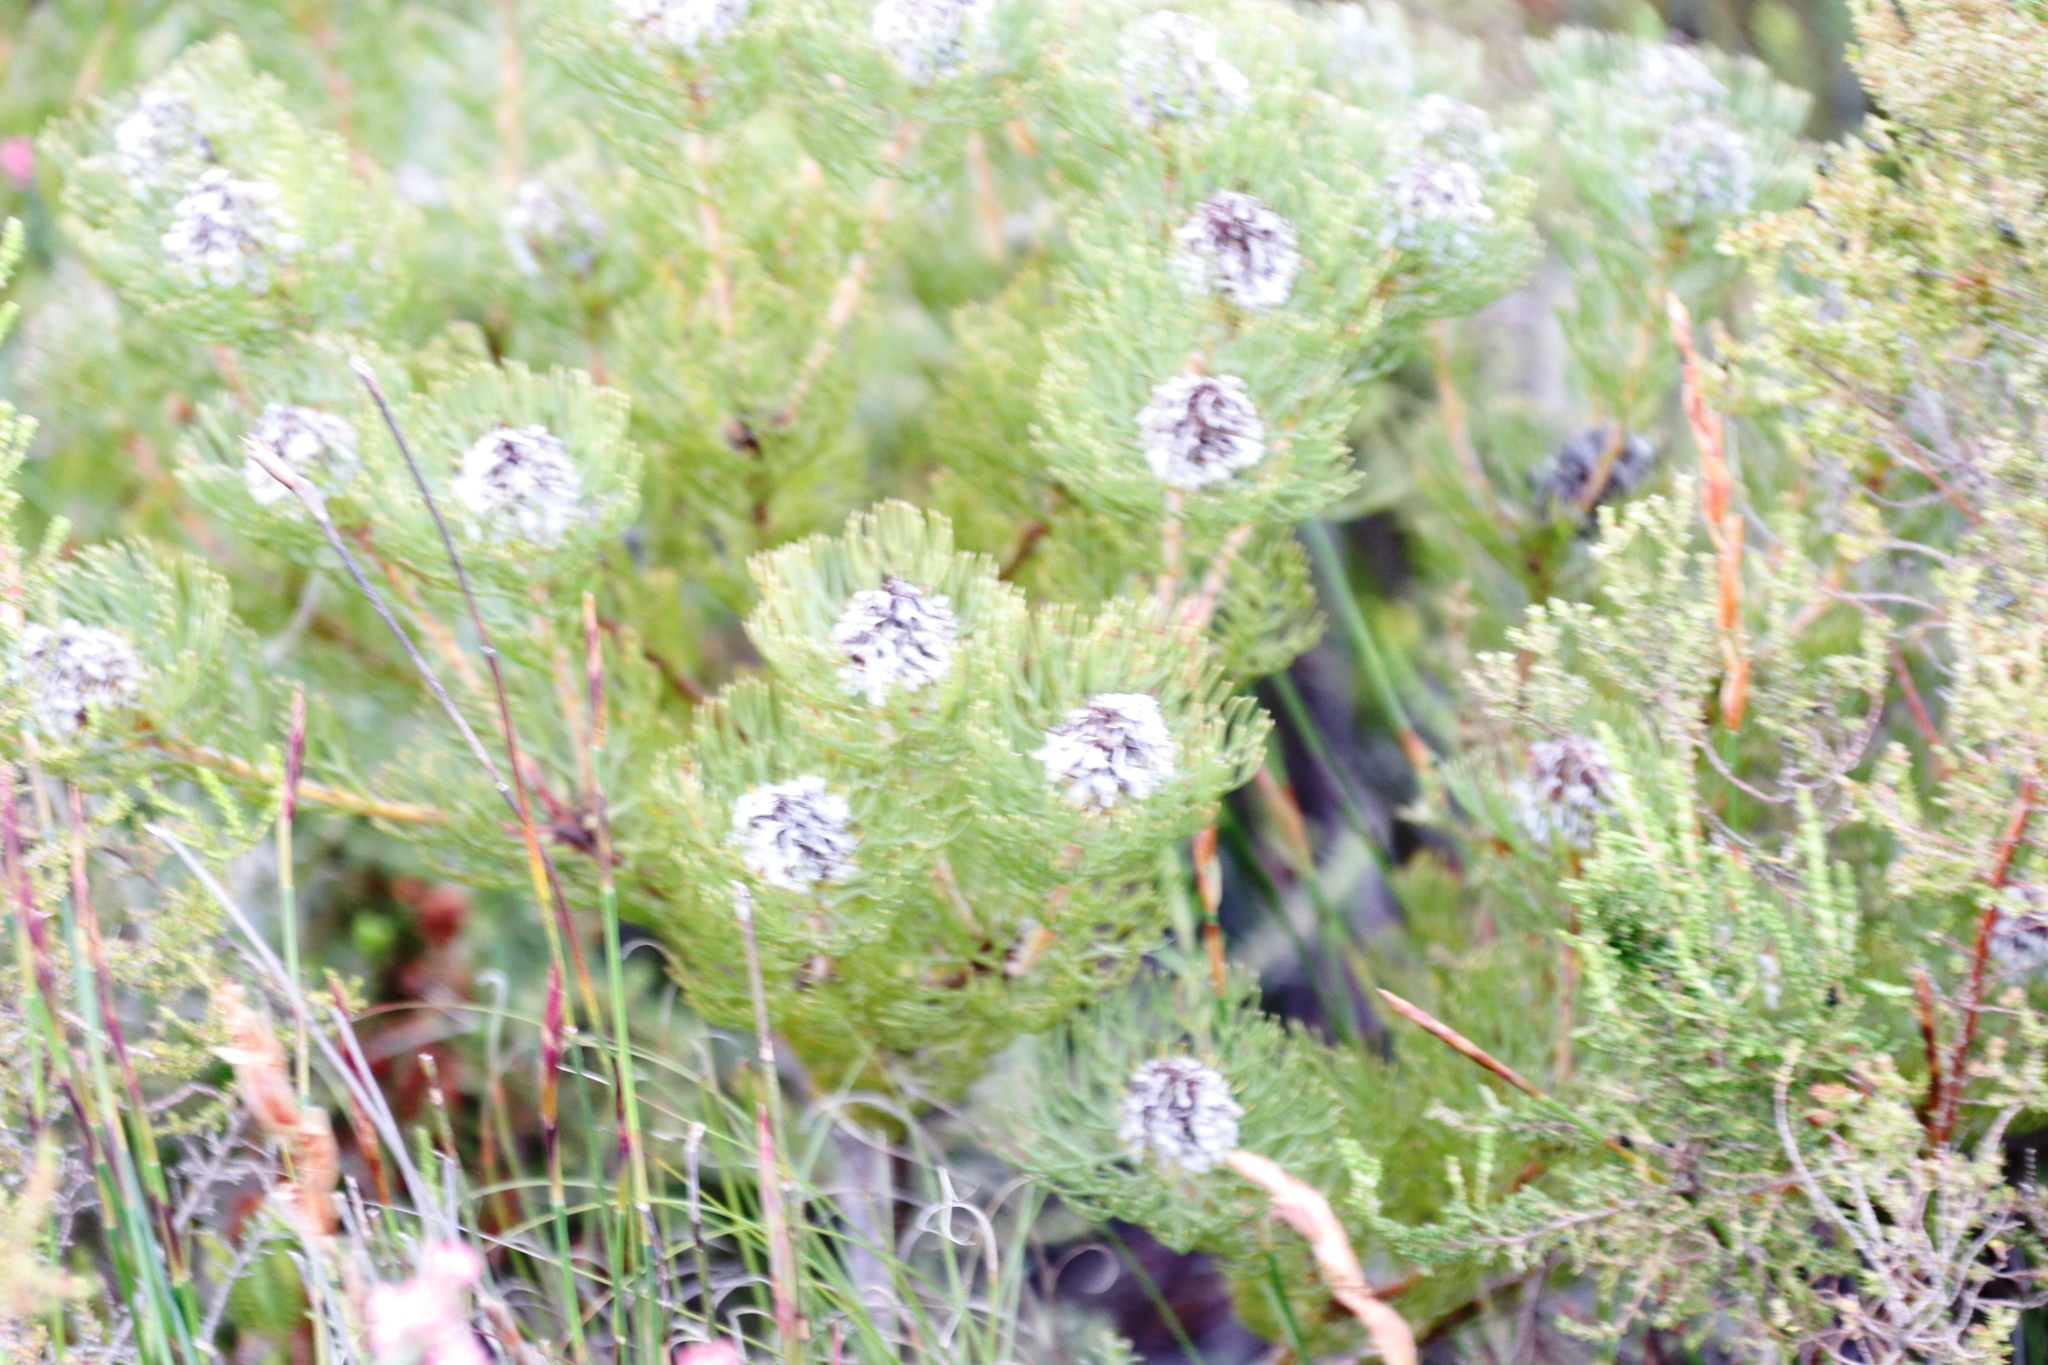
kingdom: Plantae
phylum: Tracheophyta
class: Magnoliopsida
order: Proteales
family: Proteaceae
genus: Serruria
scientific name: Serruria villosa
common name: Golden spiderhead
